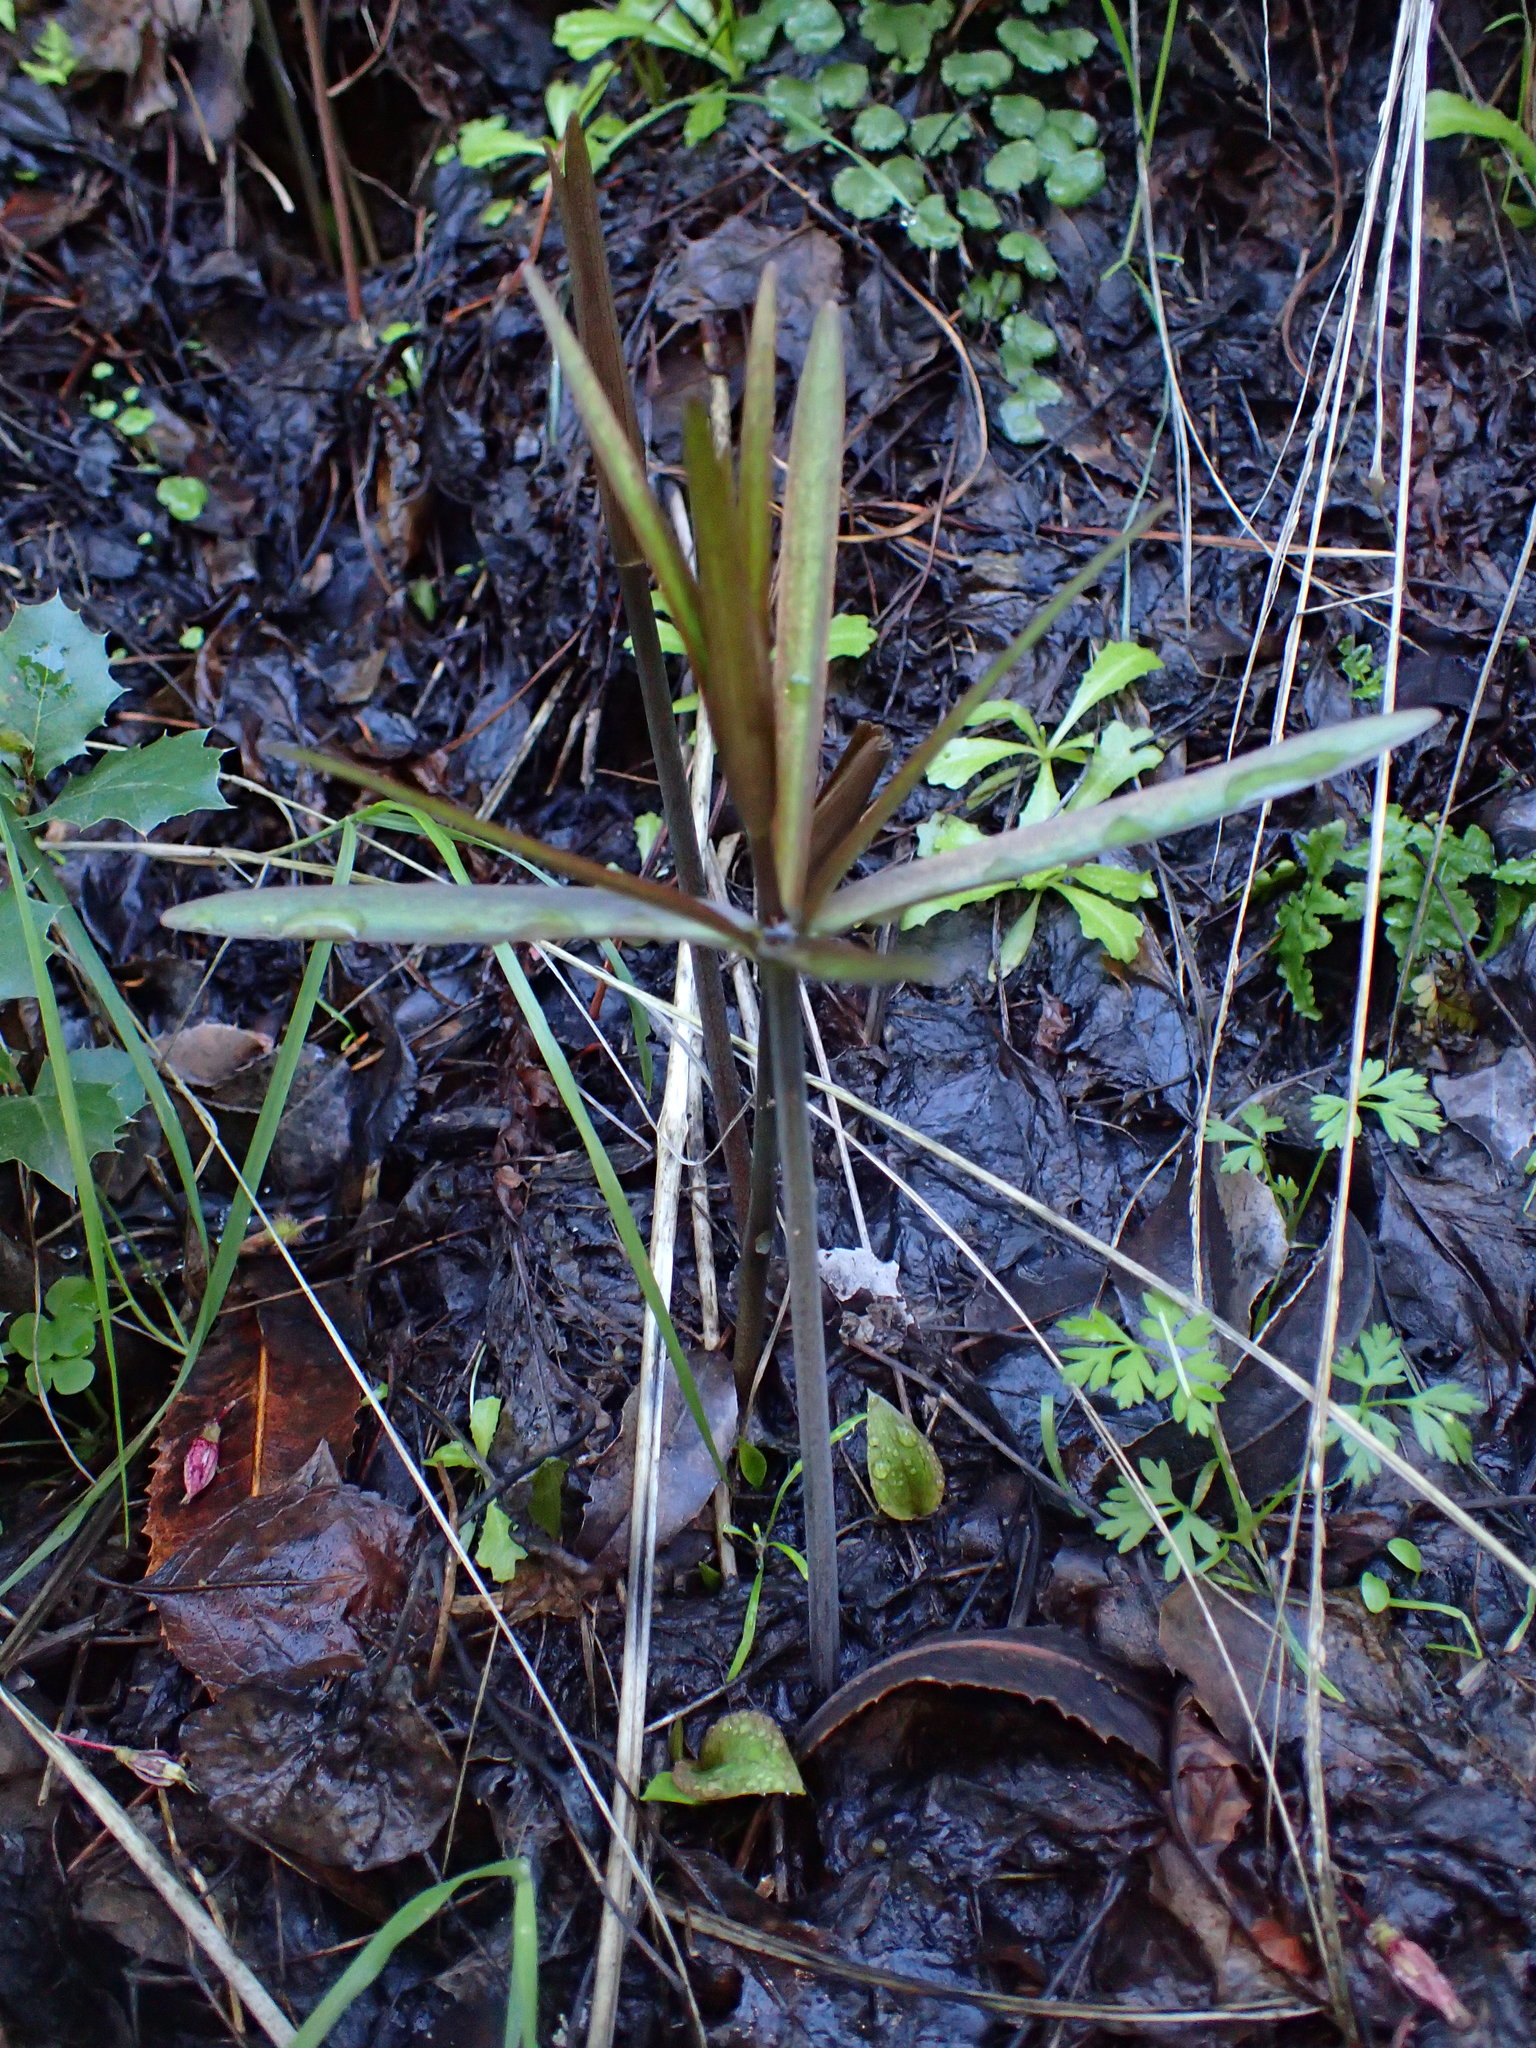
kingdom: Plantae
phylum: Tracheophyta
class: Liliopsida
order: Liliales
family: Liliaceae
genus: Fritillaria
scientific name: Fritillaria ojaiensis
